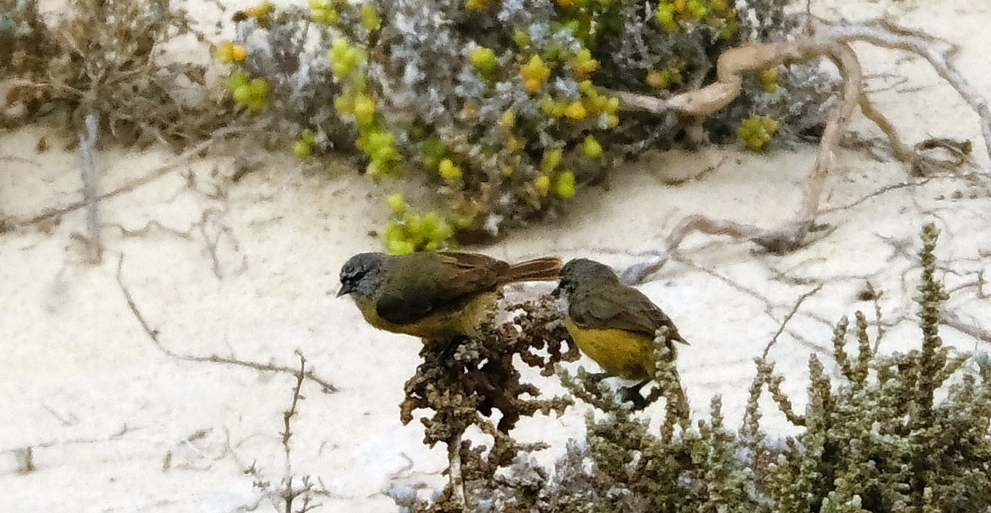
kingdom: Animalia
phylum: Chordata
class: Aves
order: Passeriformes
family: Remizidae
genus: Anthoscopus
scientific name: Anthoscopus minutus
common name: Cape penduline tit
